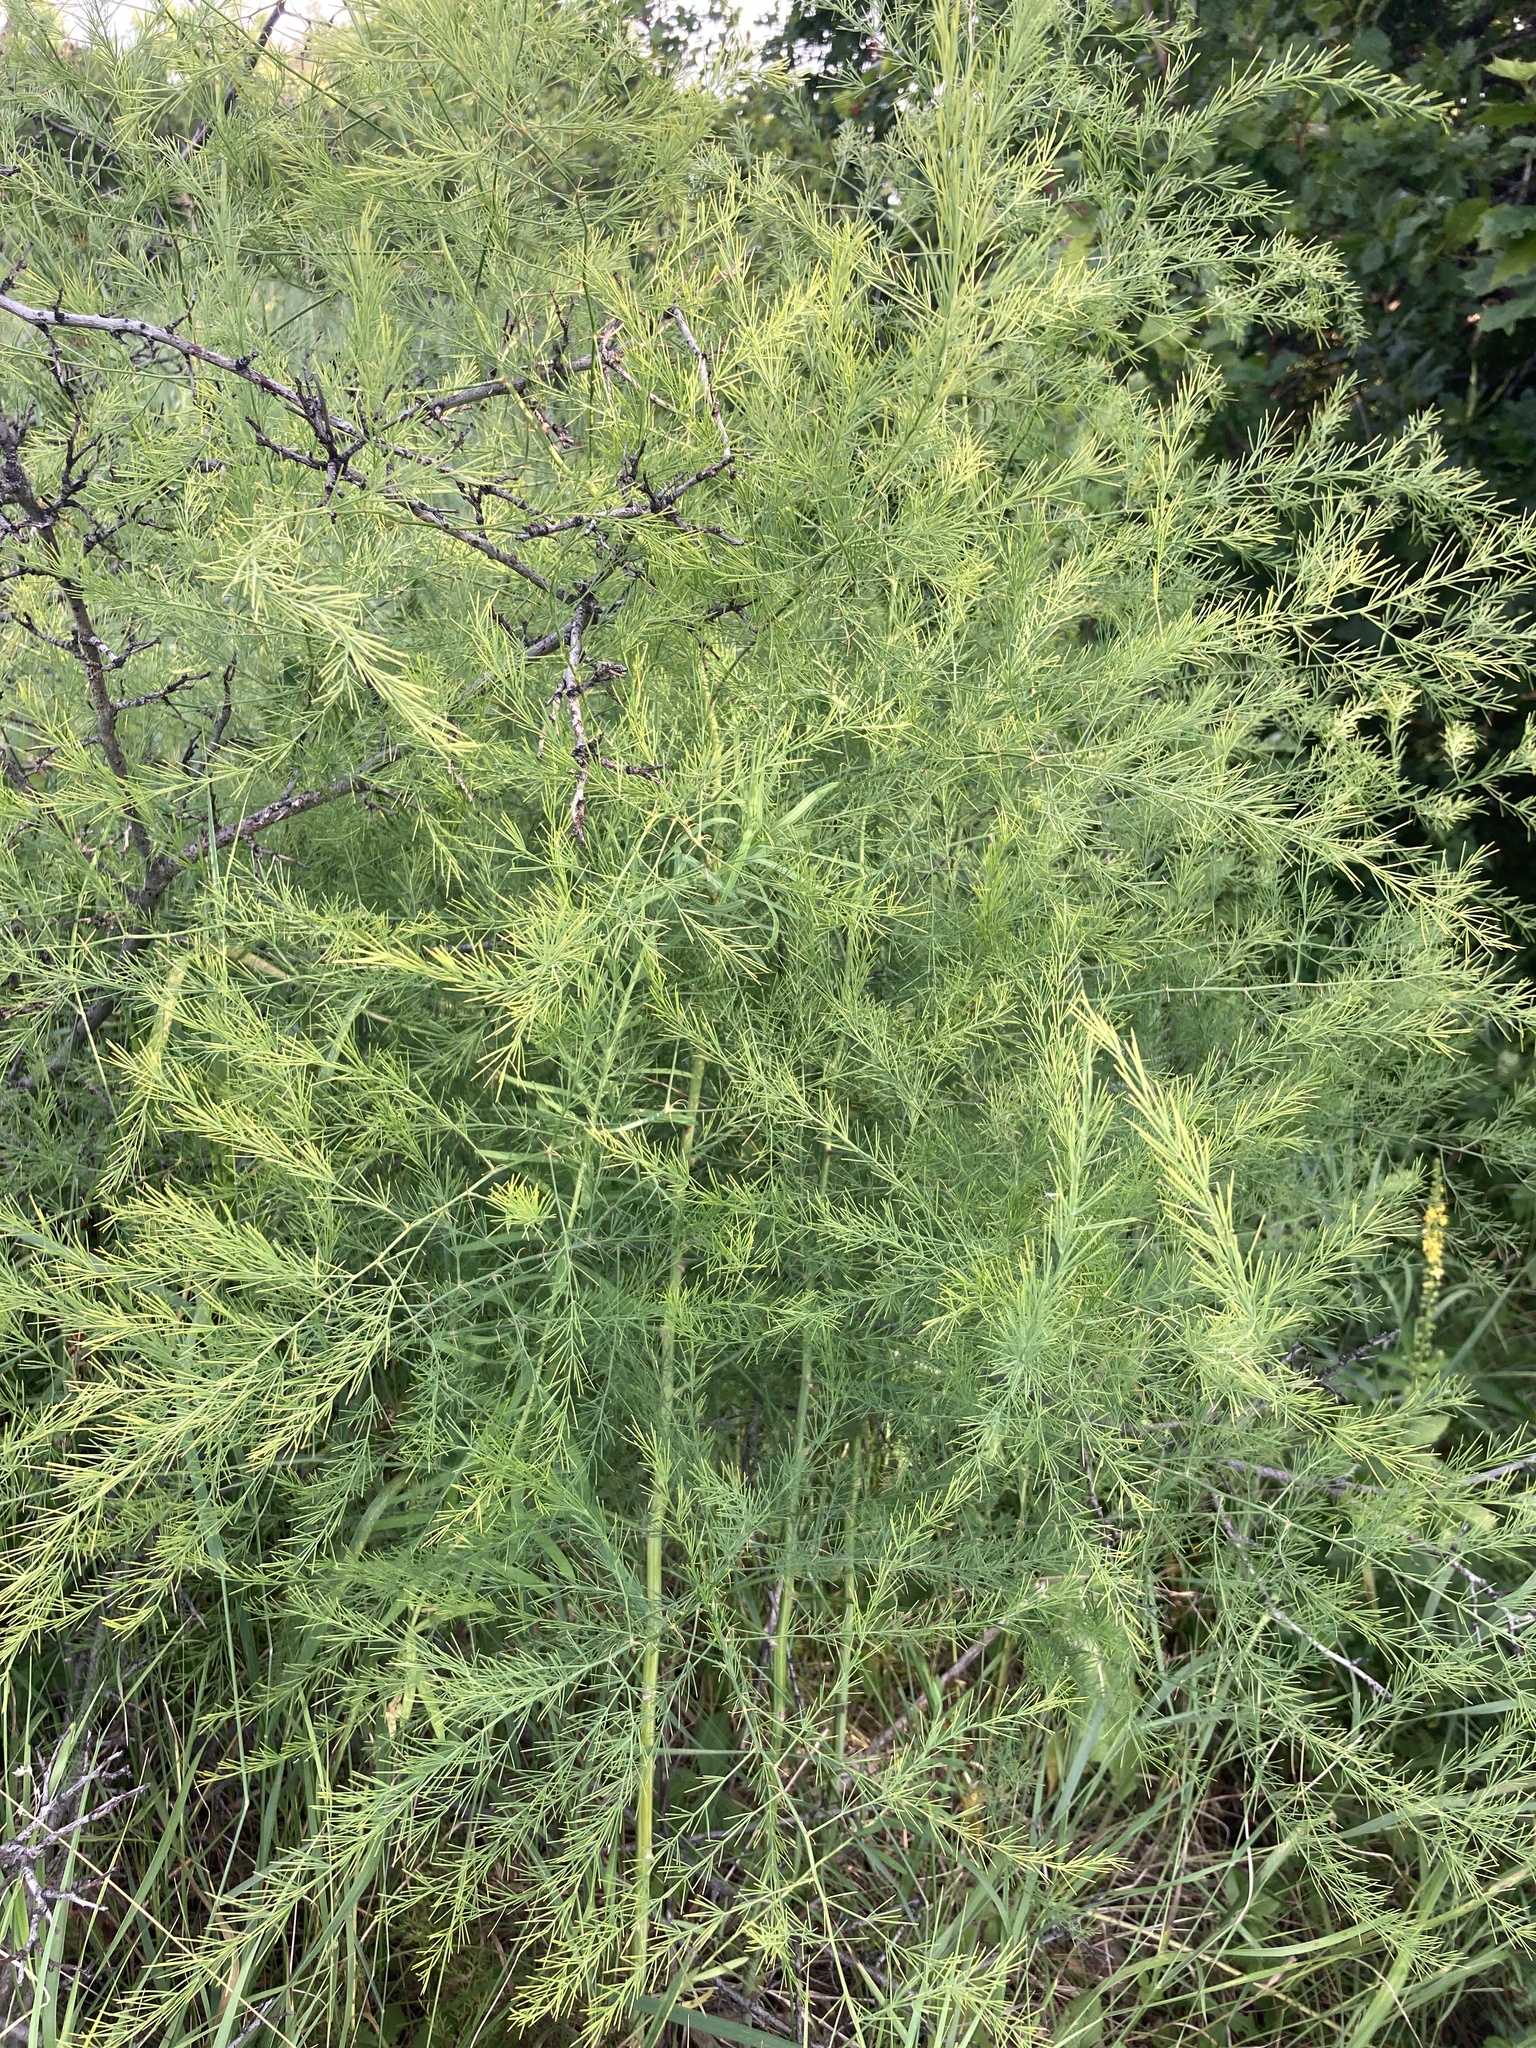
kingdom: Plantae
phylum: Tracheophyta
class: Liliopsida
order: Asparagales
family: Asparagaceae
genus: Asparagus
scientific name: Asparagus officinalis
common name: Garden asparagus
